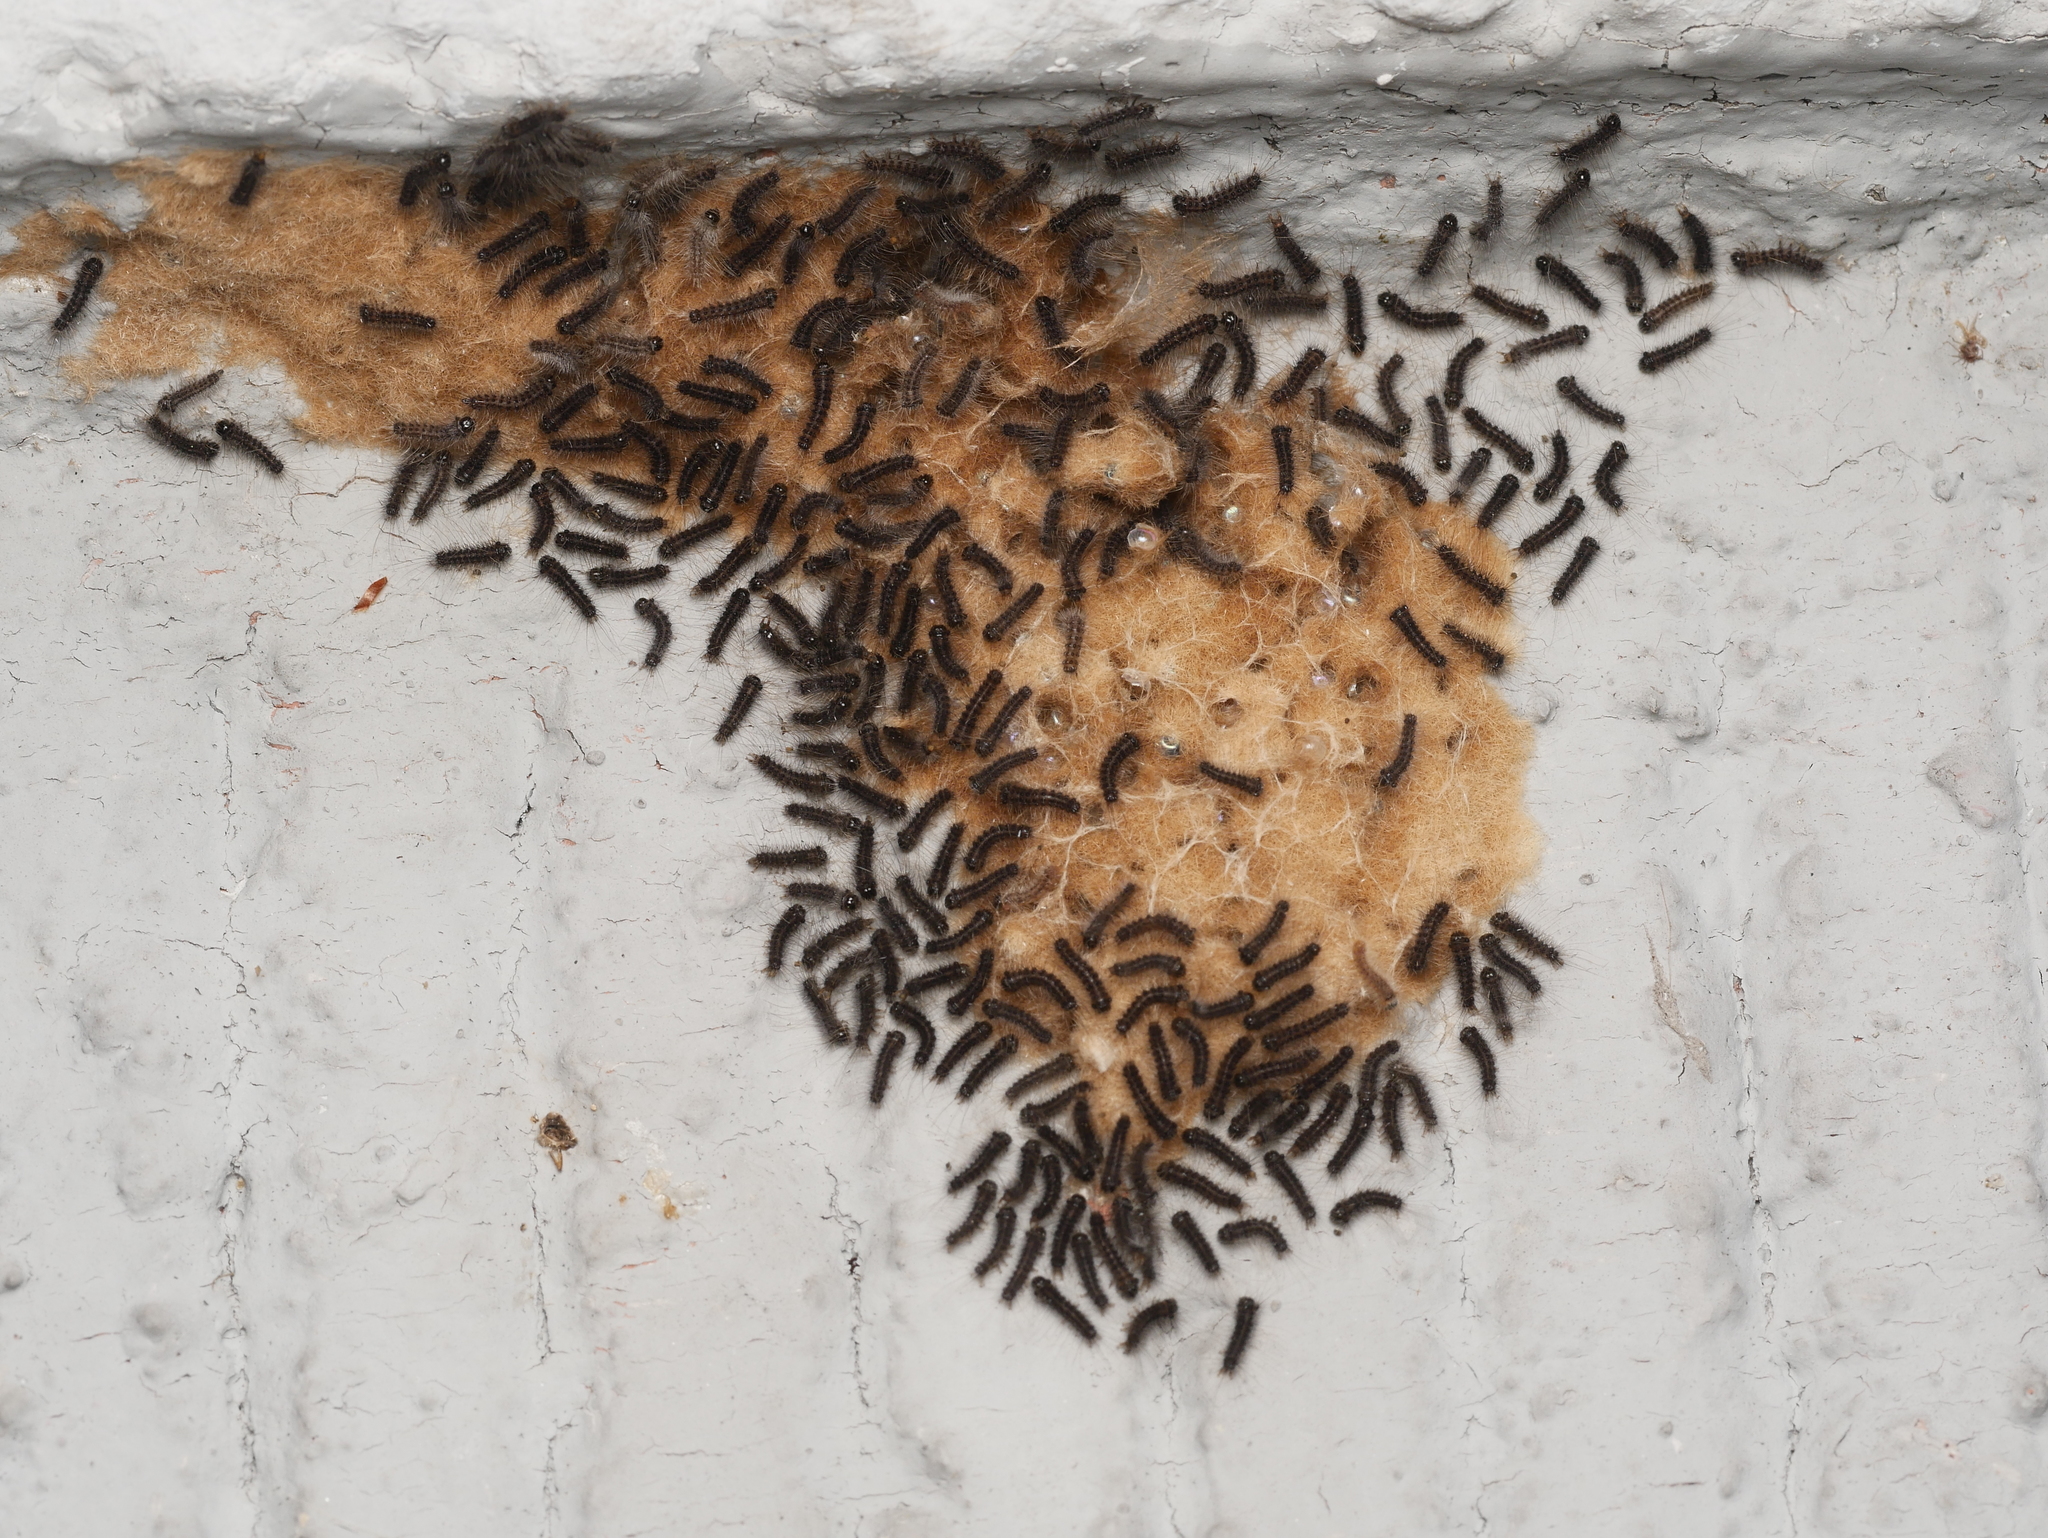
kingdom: Animalia
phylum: Arthropoda
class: Insecta
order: Lepidoptera
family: Erebidae
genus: Lymantria
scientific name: Lymantria dispar
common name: Gypsy moth
